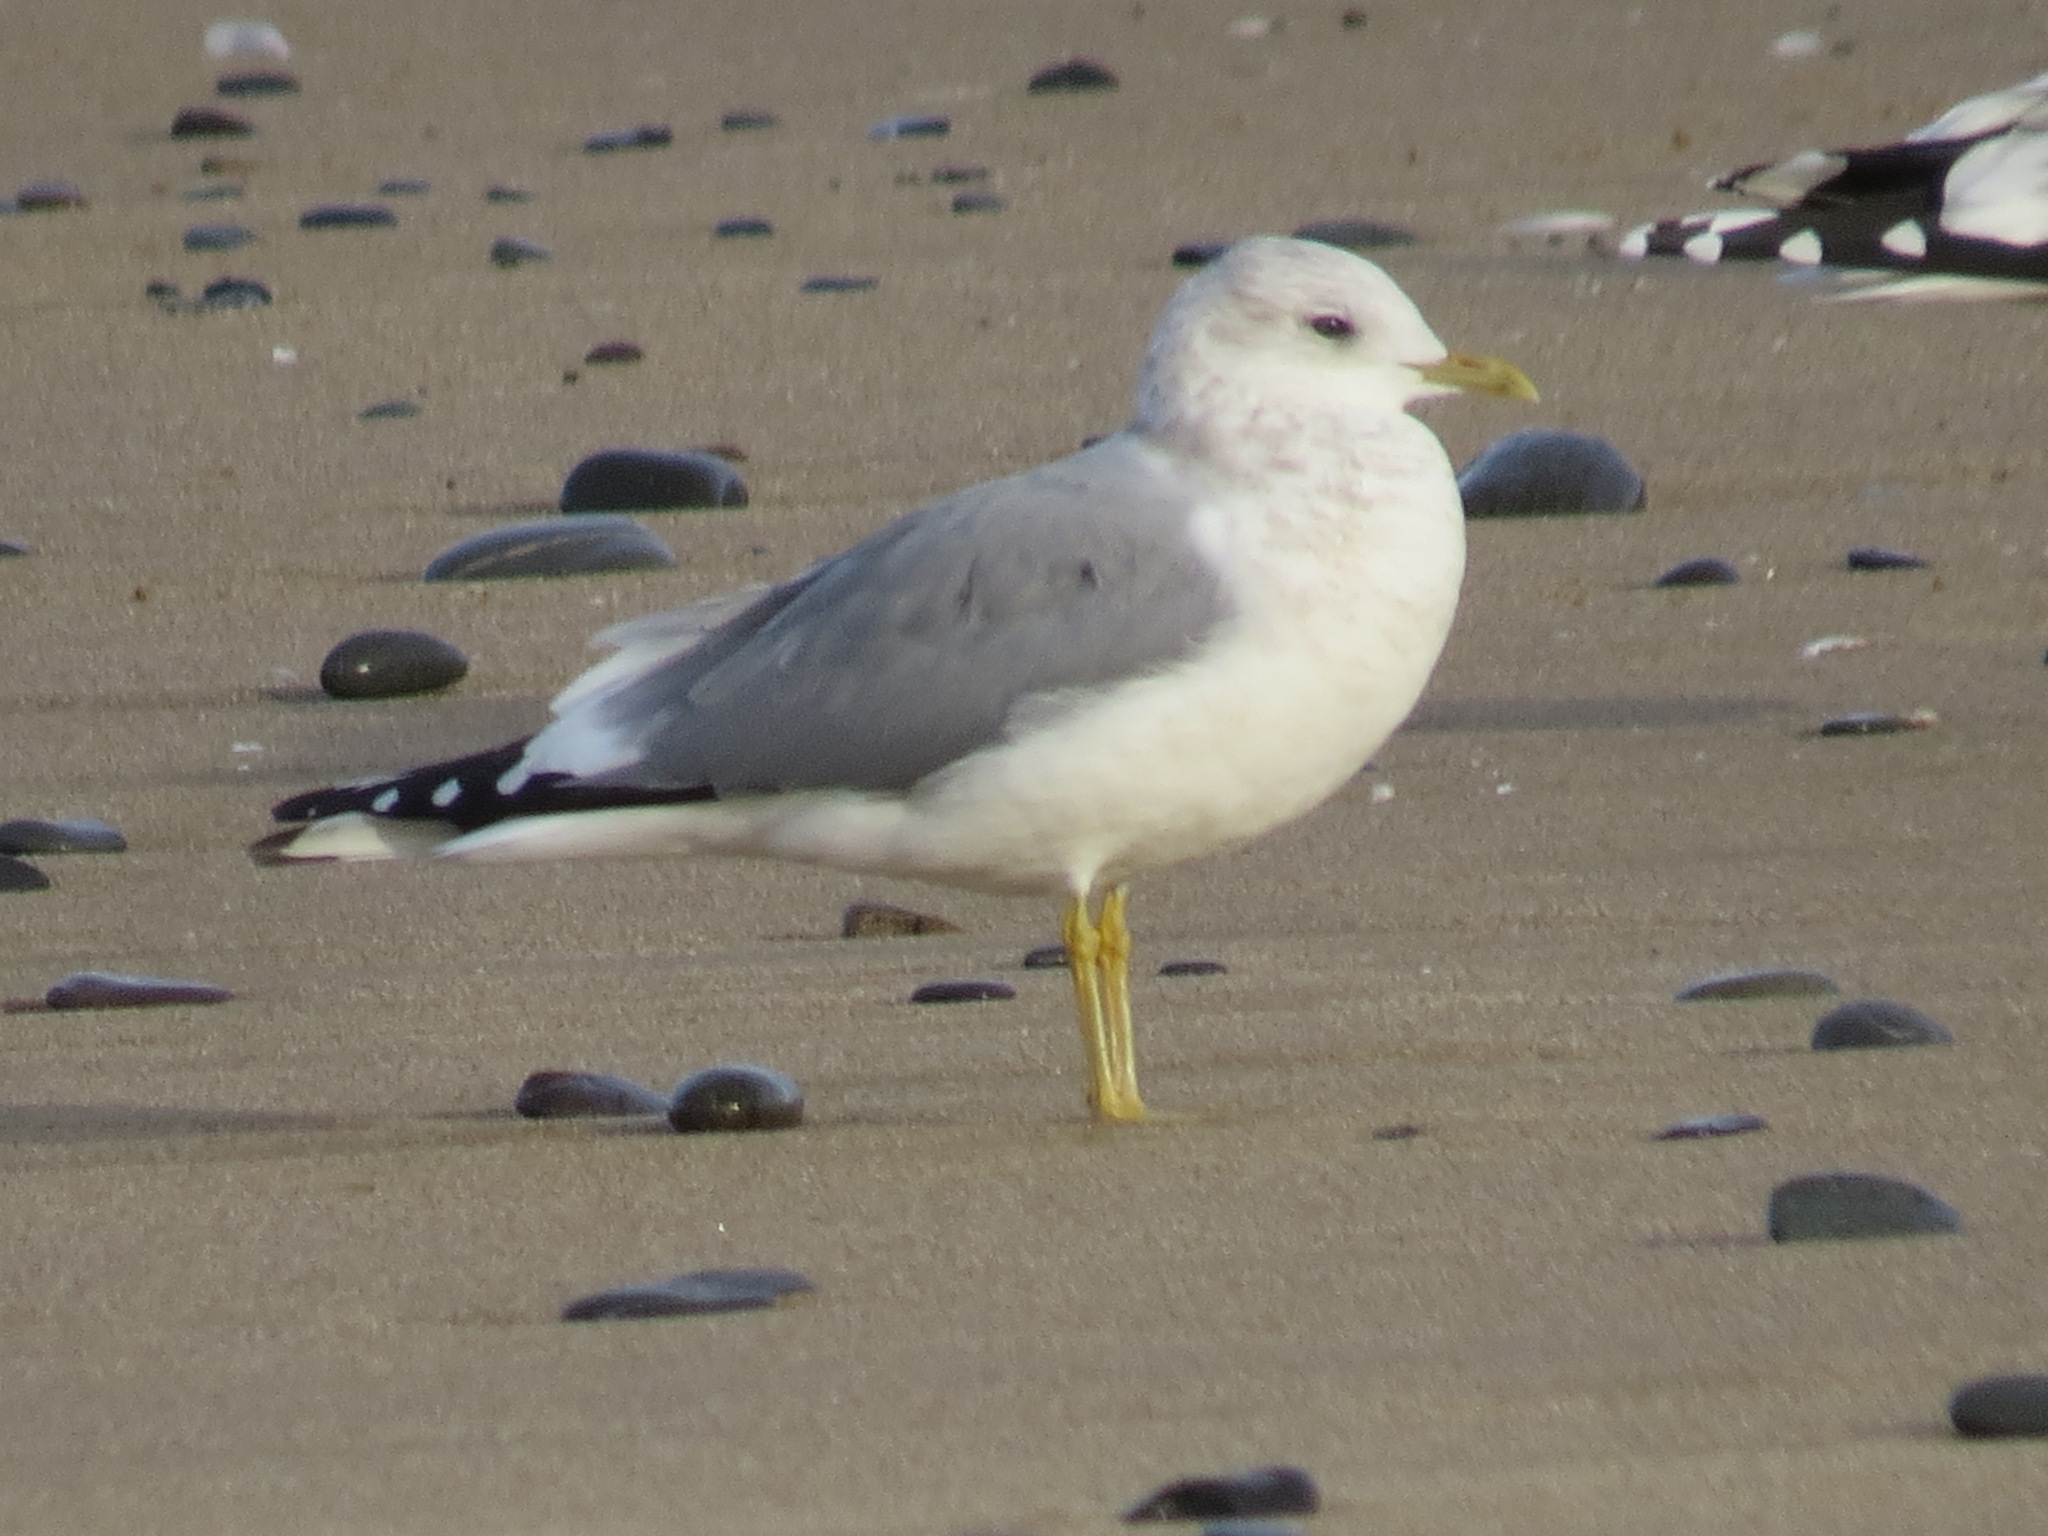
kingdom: Animalia
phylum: Chordata
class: Aves
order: Charadriiformes
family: Laridae
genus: Larus
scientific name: Larus brachyrhynchus
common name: Short-billed gull
